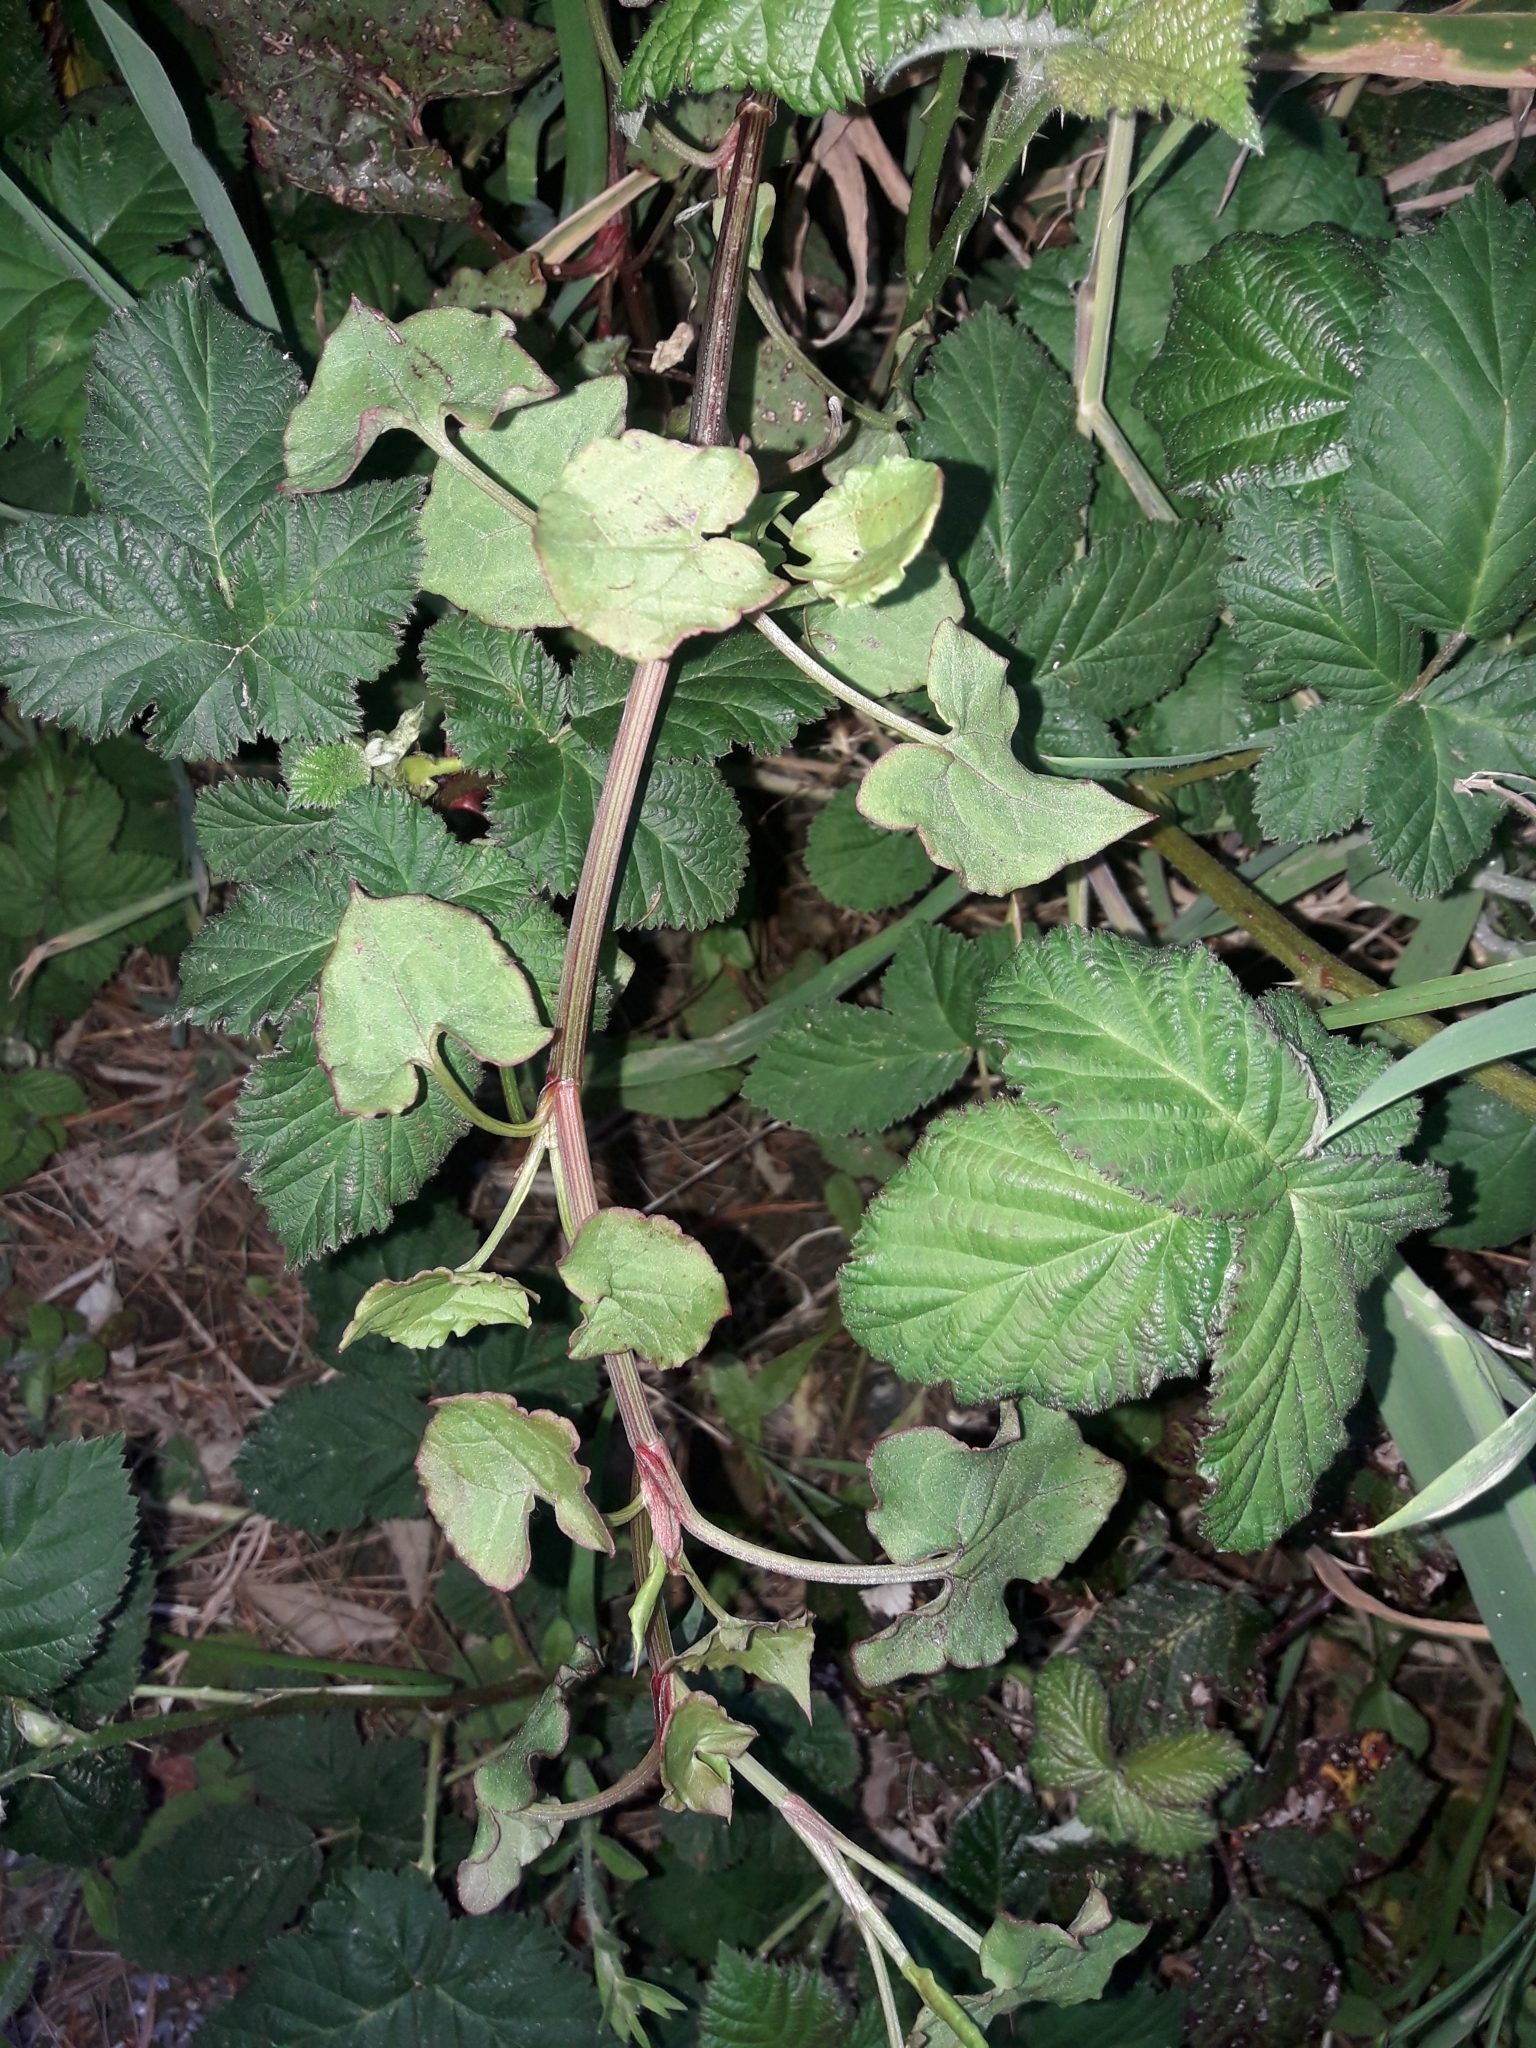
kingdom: Plantae
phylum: Tracheophyta
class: Magnoliopsida
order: Caryophyllales
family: Polygonaceae
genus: Rumex
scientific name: Rumex sagittatus
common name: Climbing dock
